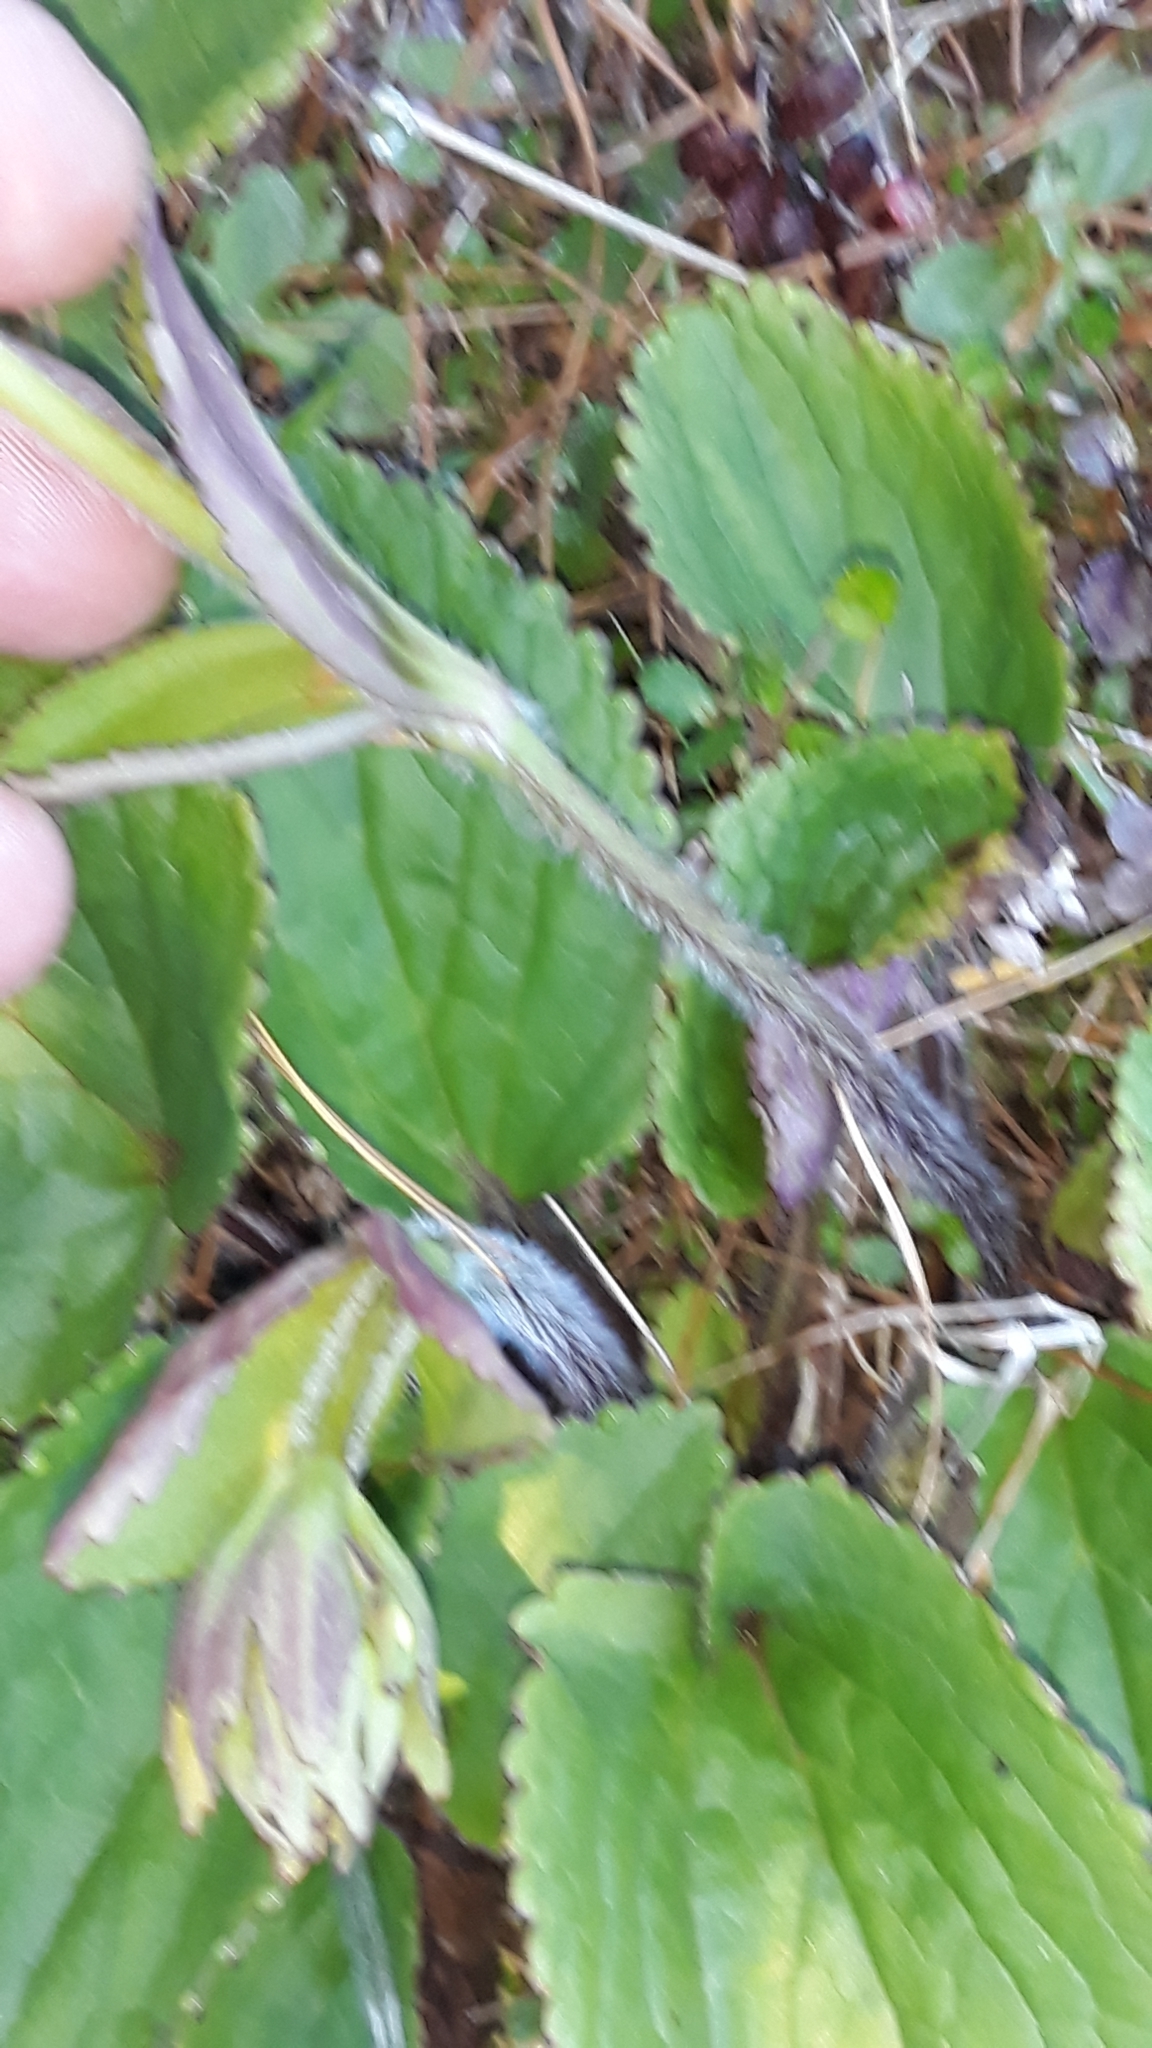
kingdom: Plantae
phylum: Tracheophyta
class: Magnoliopsida
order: Lamiales
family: Plantaginaceae
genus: Ourisia
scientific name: Ourisia macrophylla
